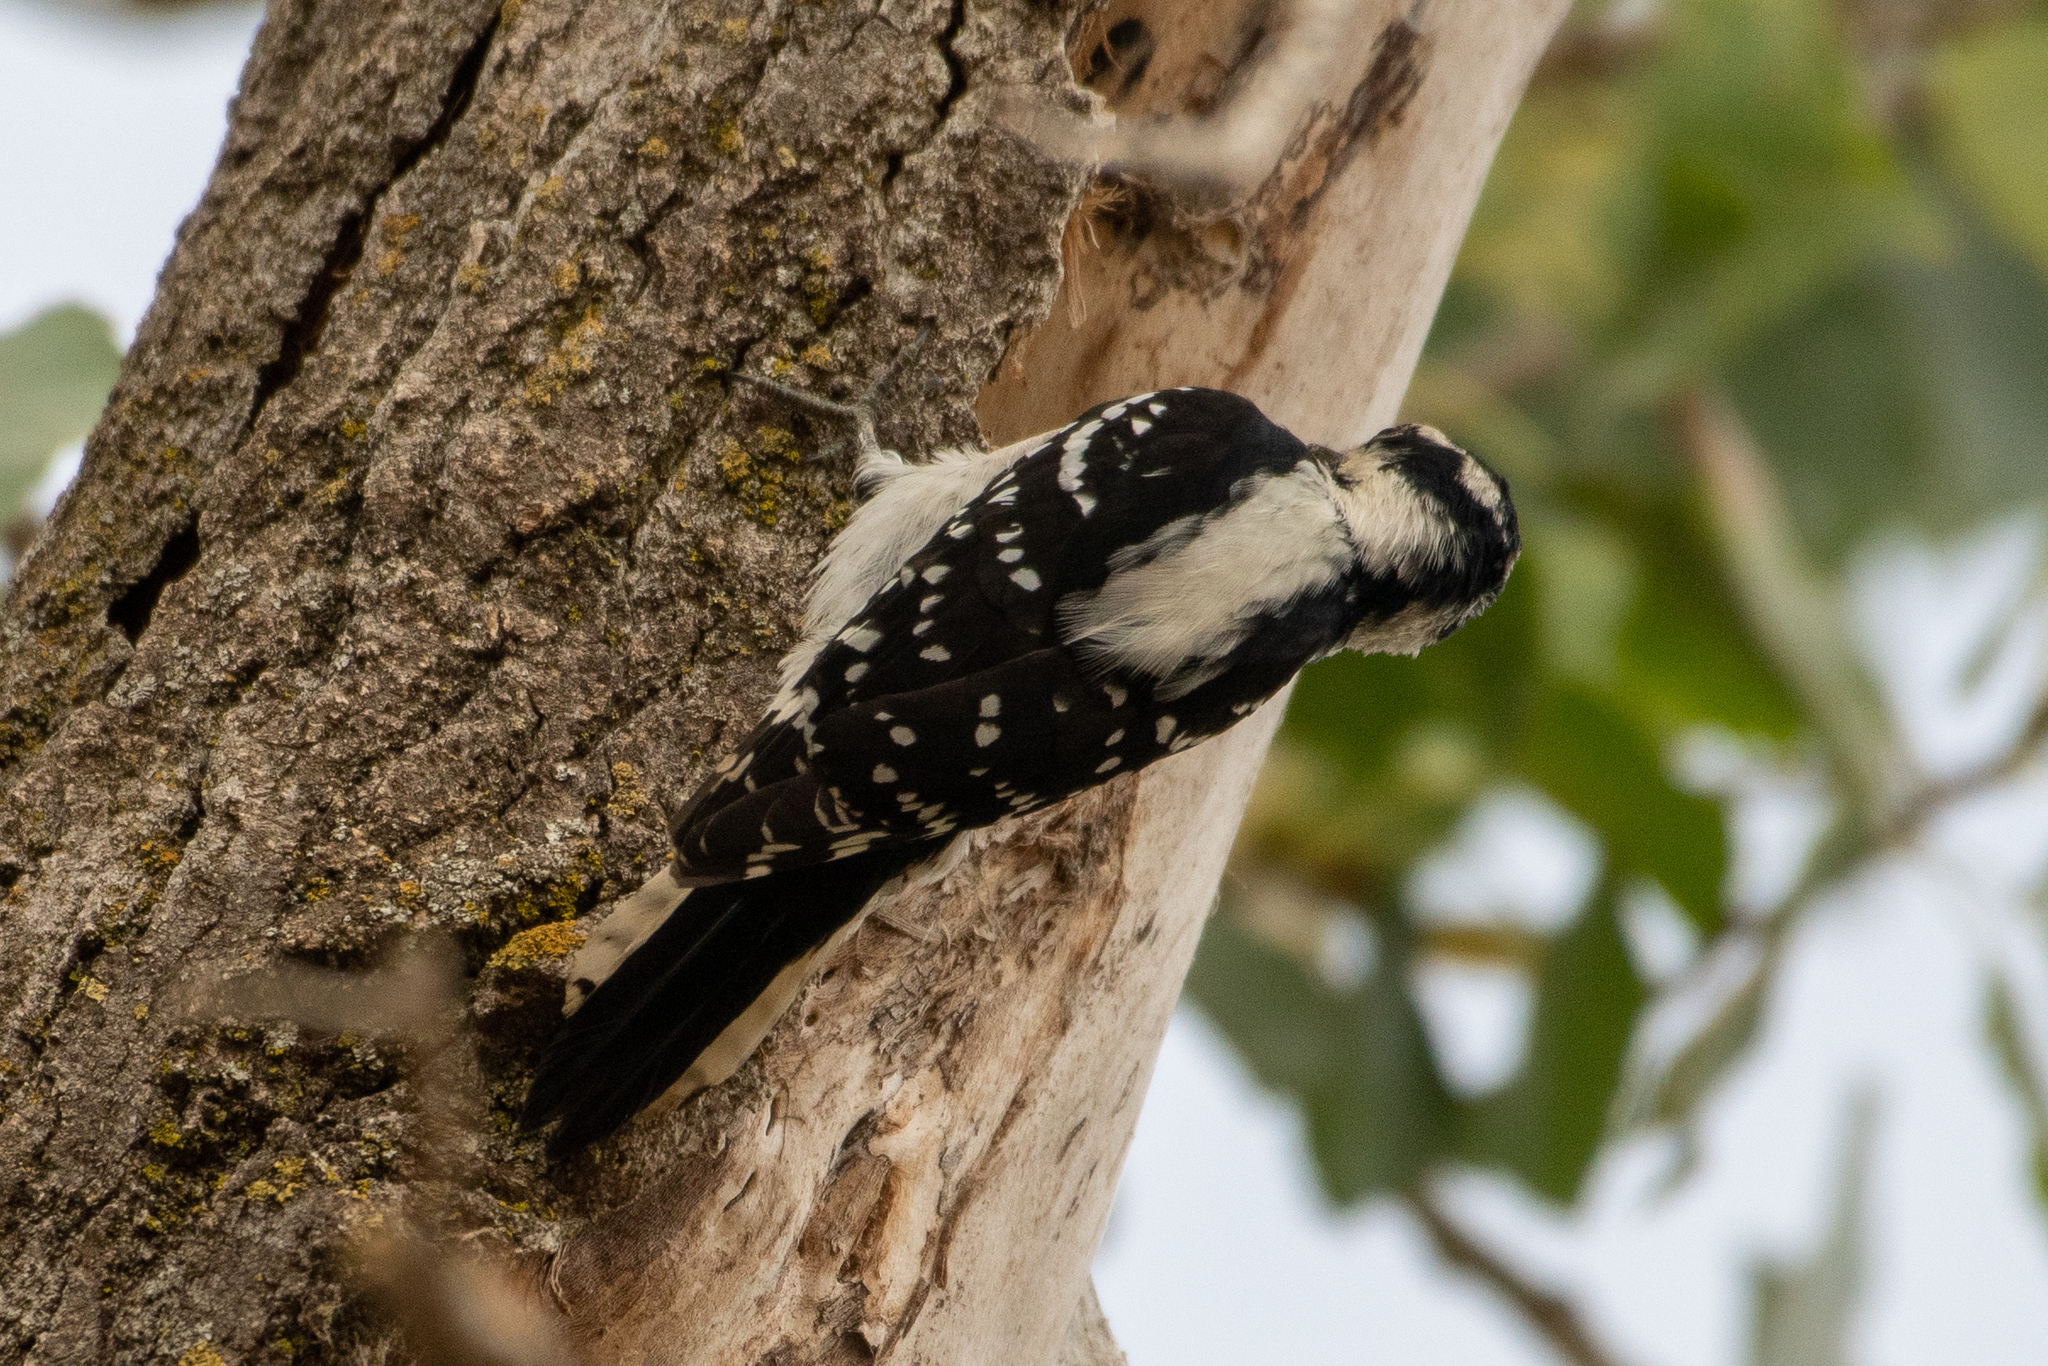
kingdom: Animalia
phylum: Chordata
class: Aves
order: Piciformes
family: Picidae
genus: Dryobates
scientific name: Dryobates pubescens
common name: Downy woodpecker
